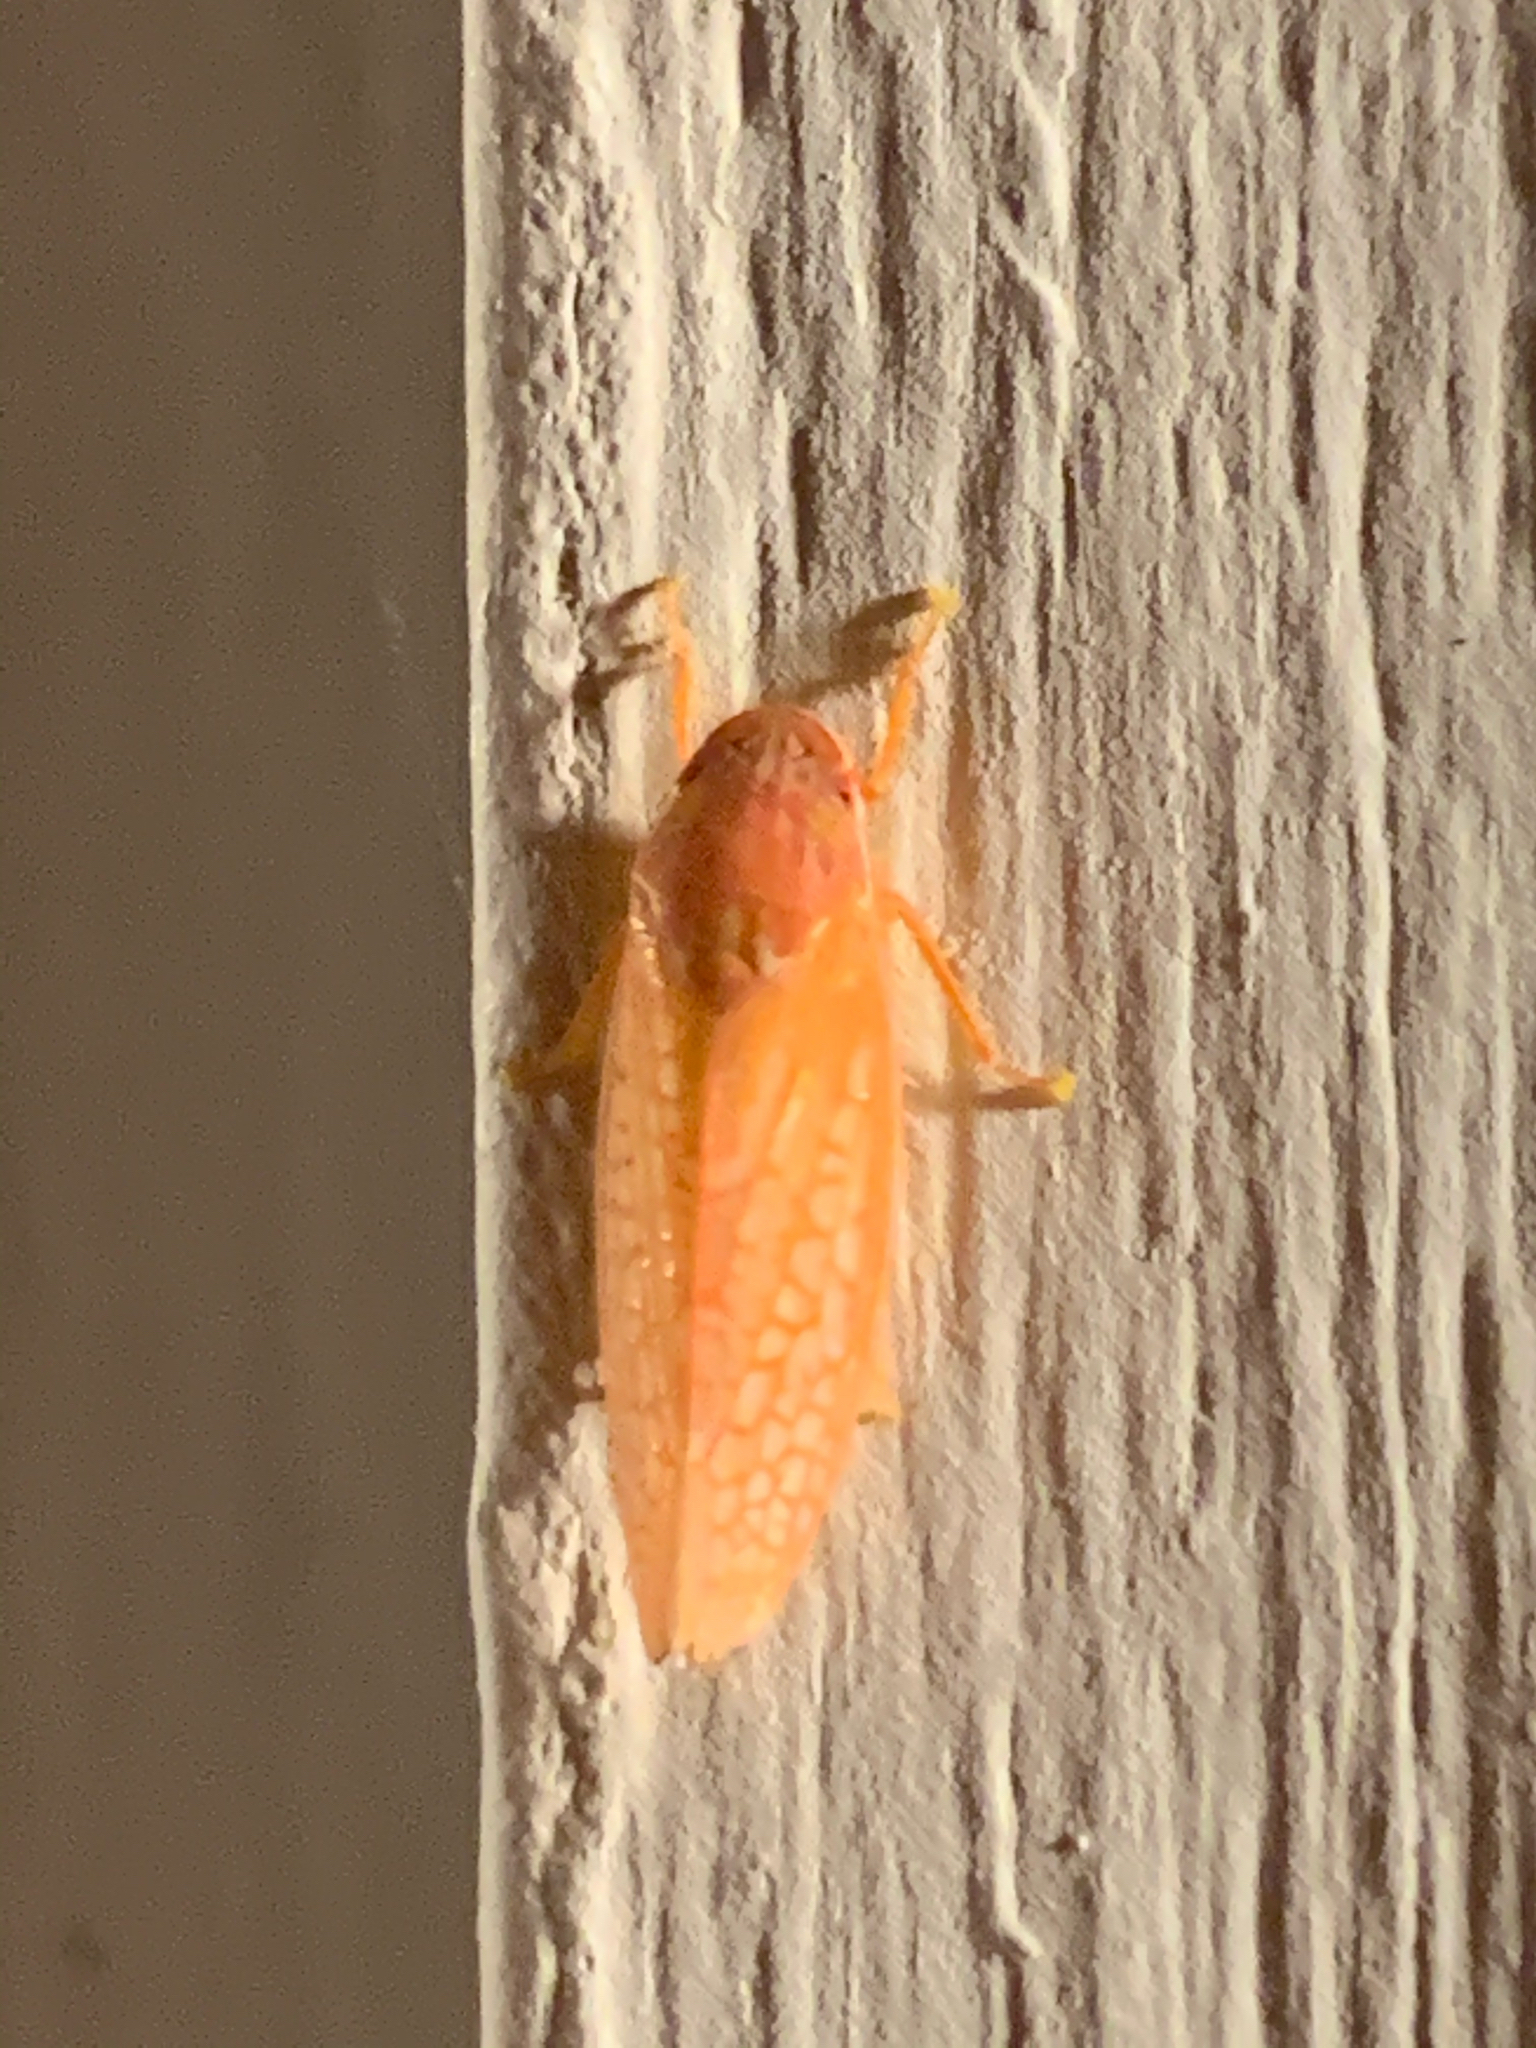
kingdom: Animalia
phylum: Arthropoda
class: Insecta
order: Hemiptera
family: Cicadellidae
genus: Gyponana
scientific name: Gyponana gladia
